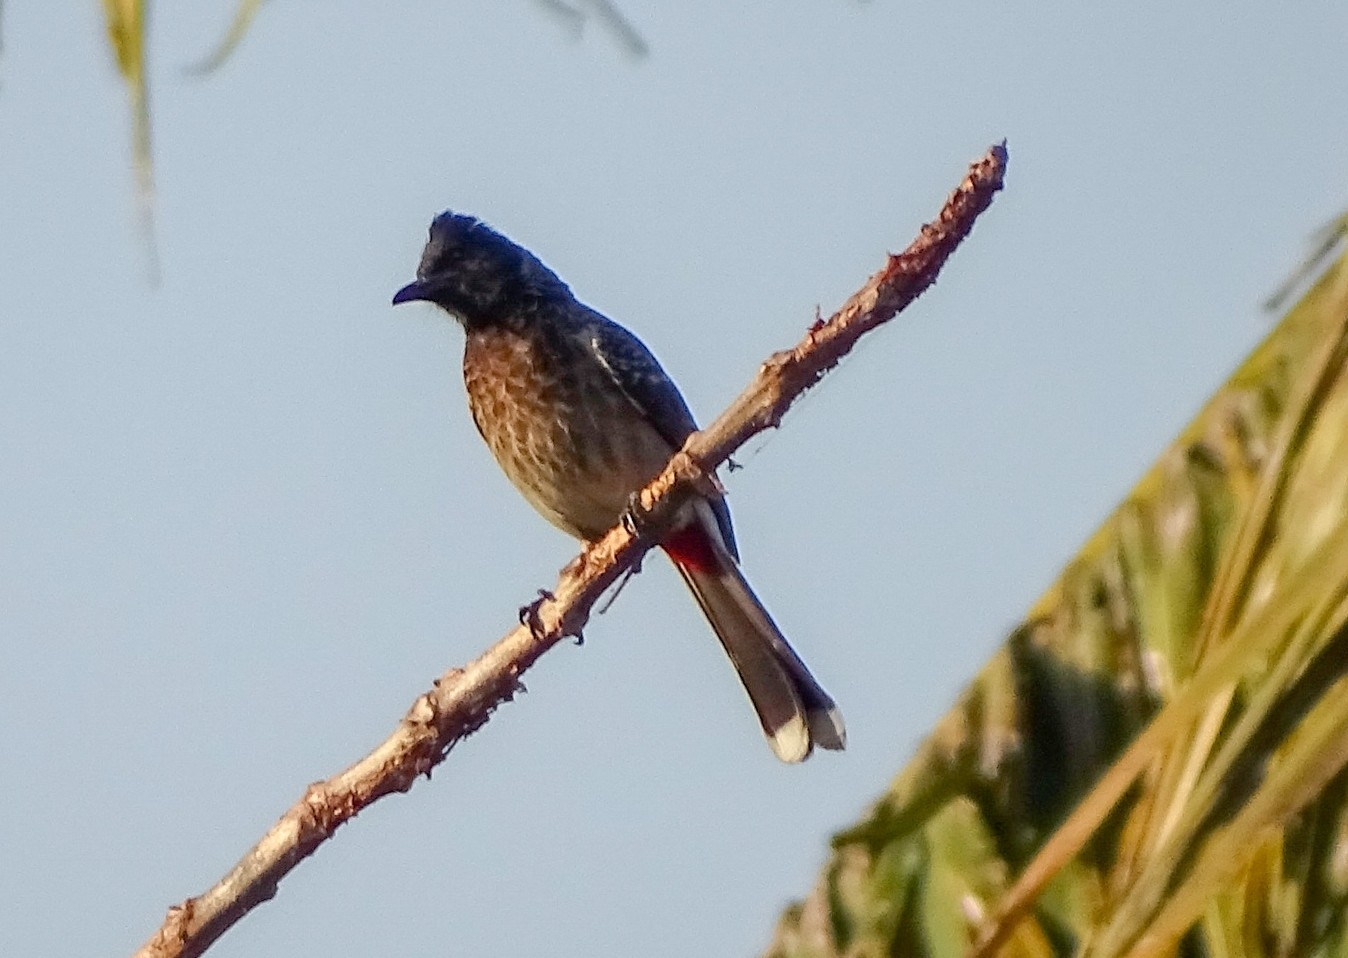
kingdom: Animalia
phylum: Chordata
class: Aves
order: Passeriformes
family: Pycnonotidae
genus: Pycnonotus
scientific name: Pycnonotus cafer
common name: Red-vented bulbul
